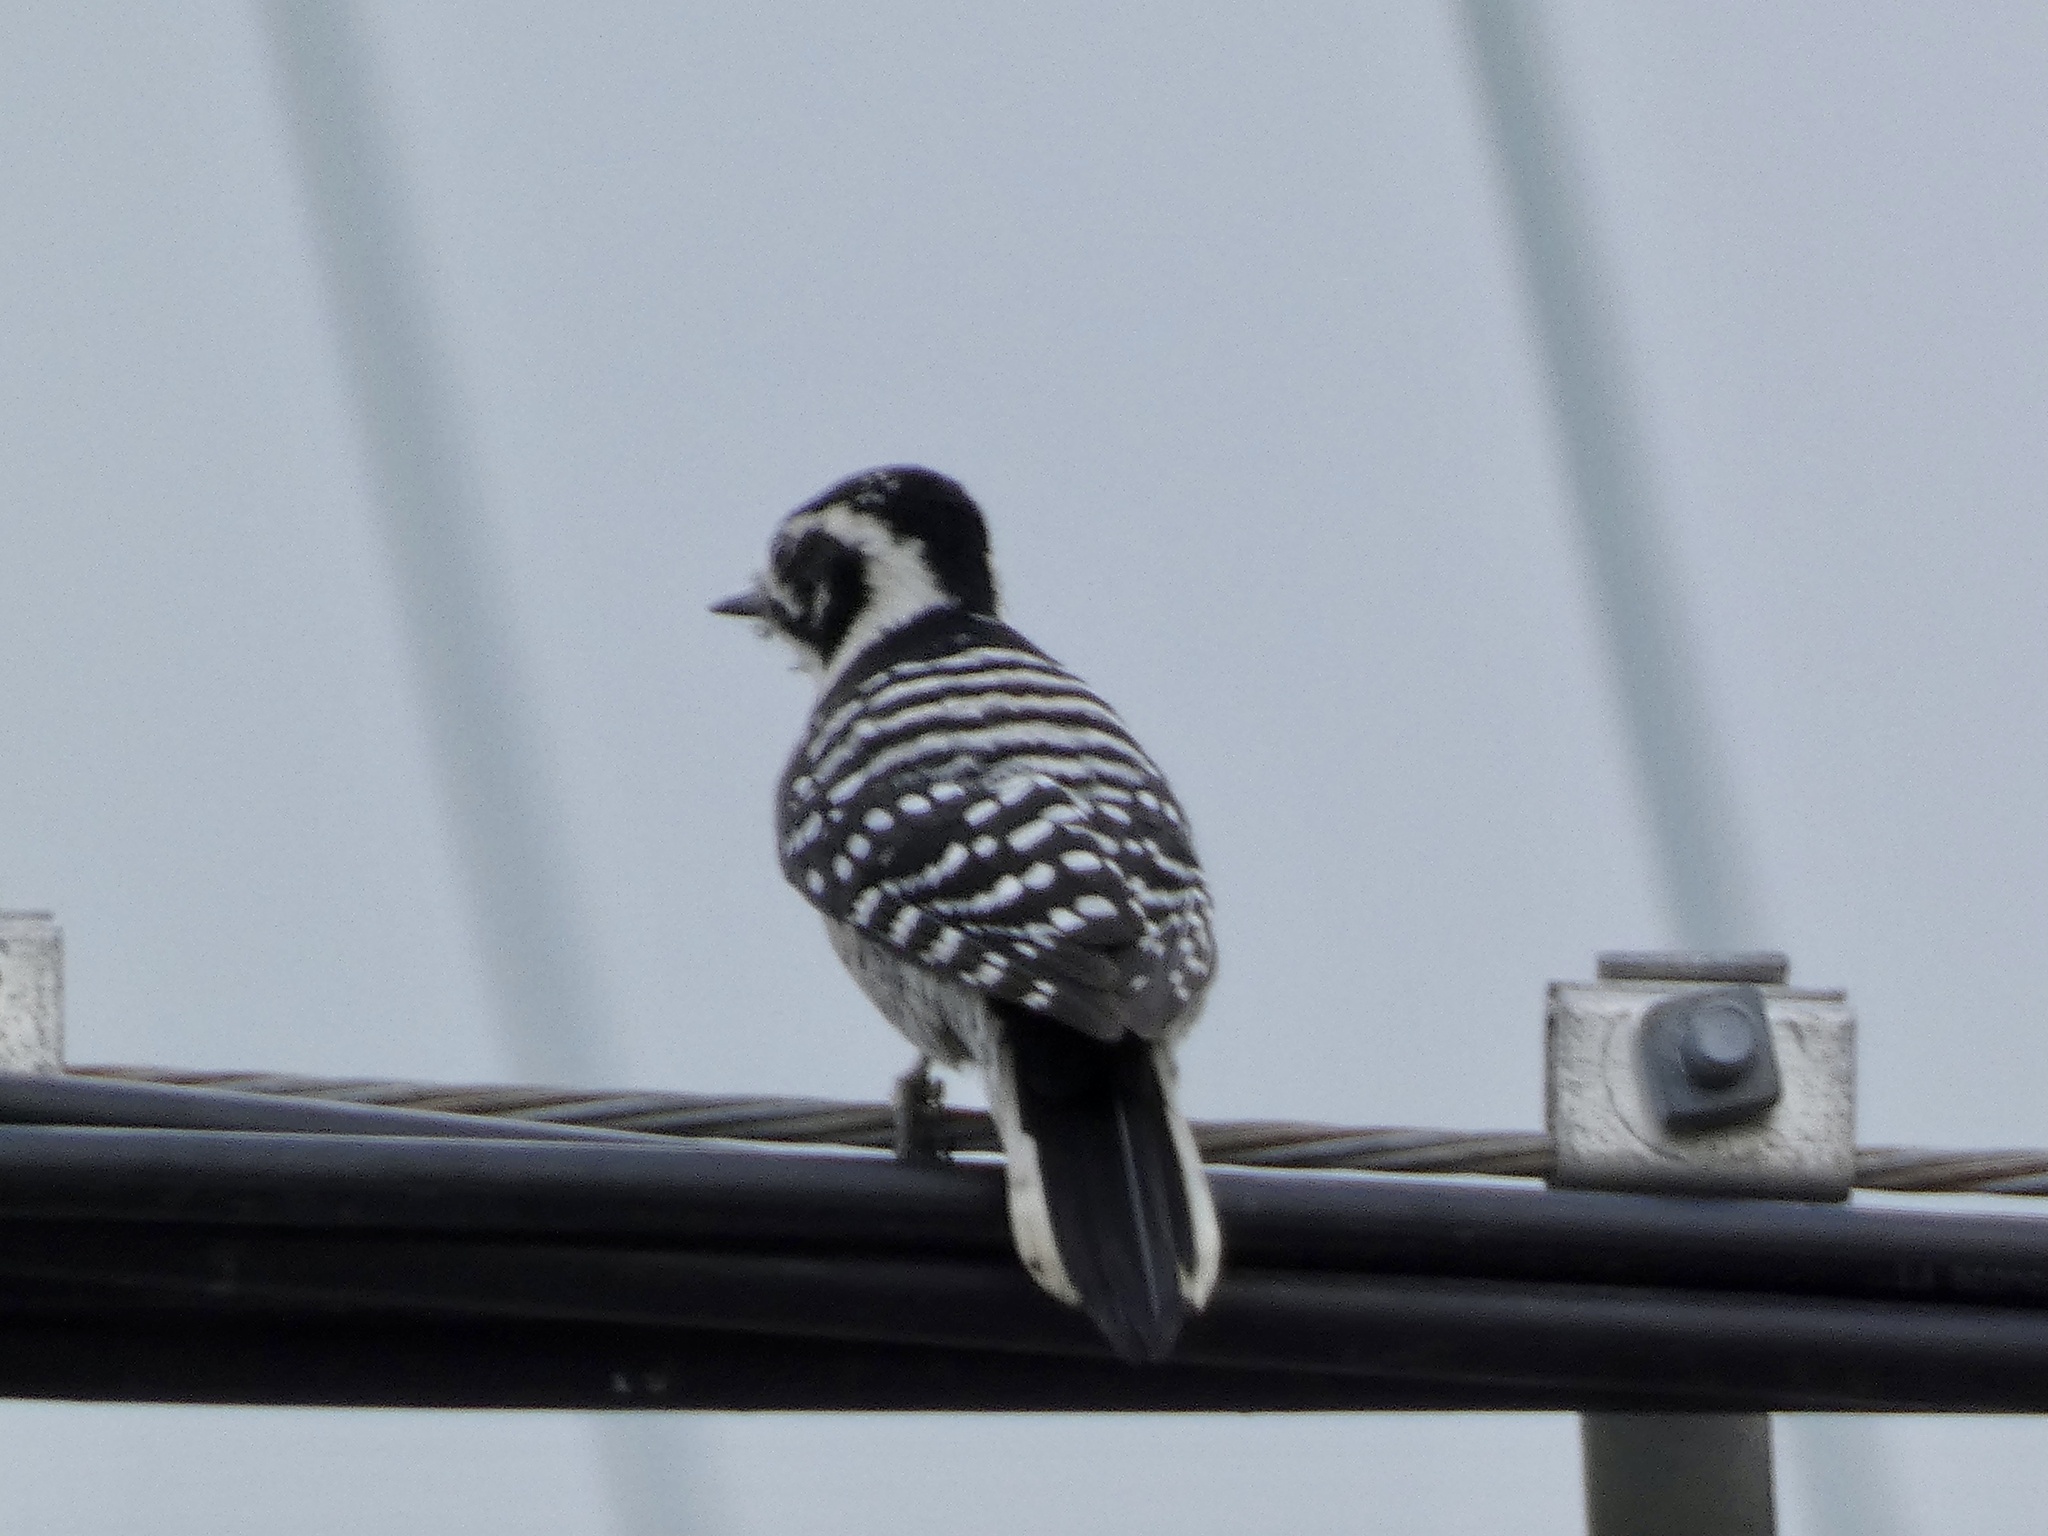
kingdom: Animalia
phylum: Chordata
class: Aves
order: Piciformes
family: Picidae
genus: Dryobates
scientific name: Dryobates nuttallii
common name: Nuttall's woodpecker
